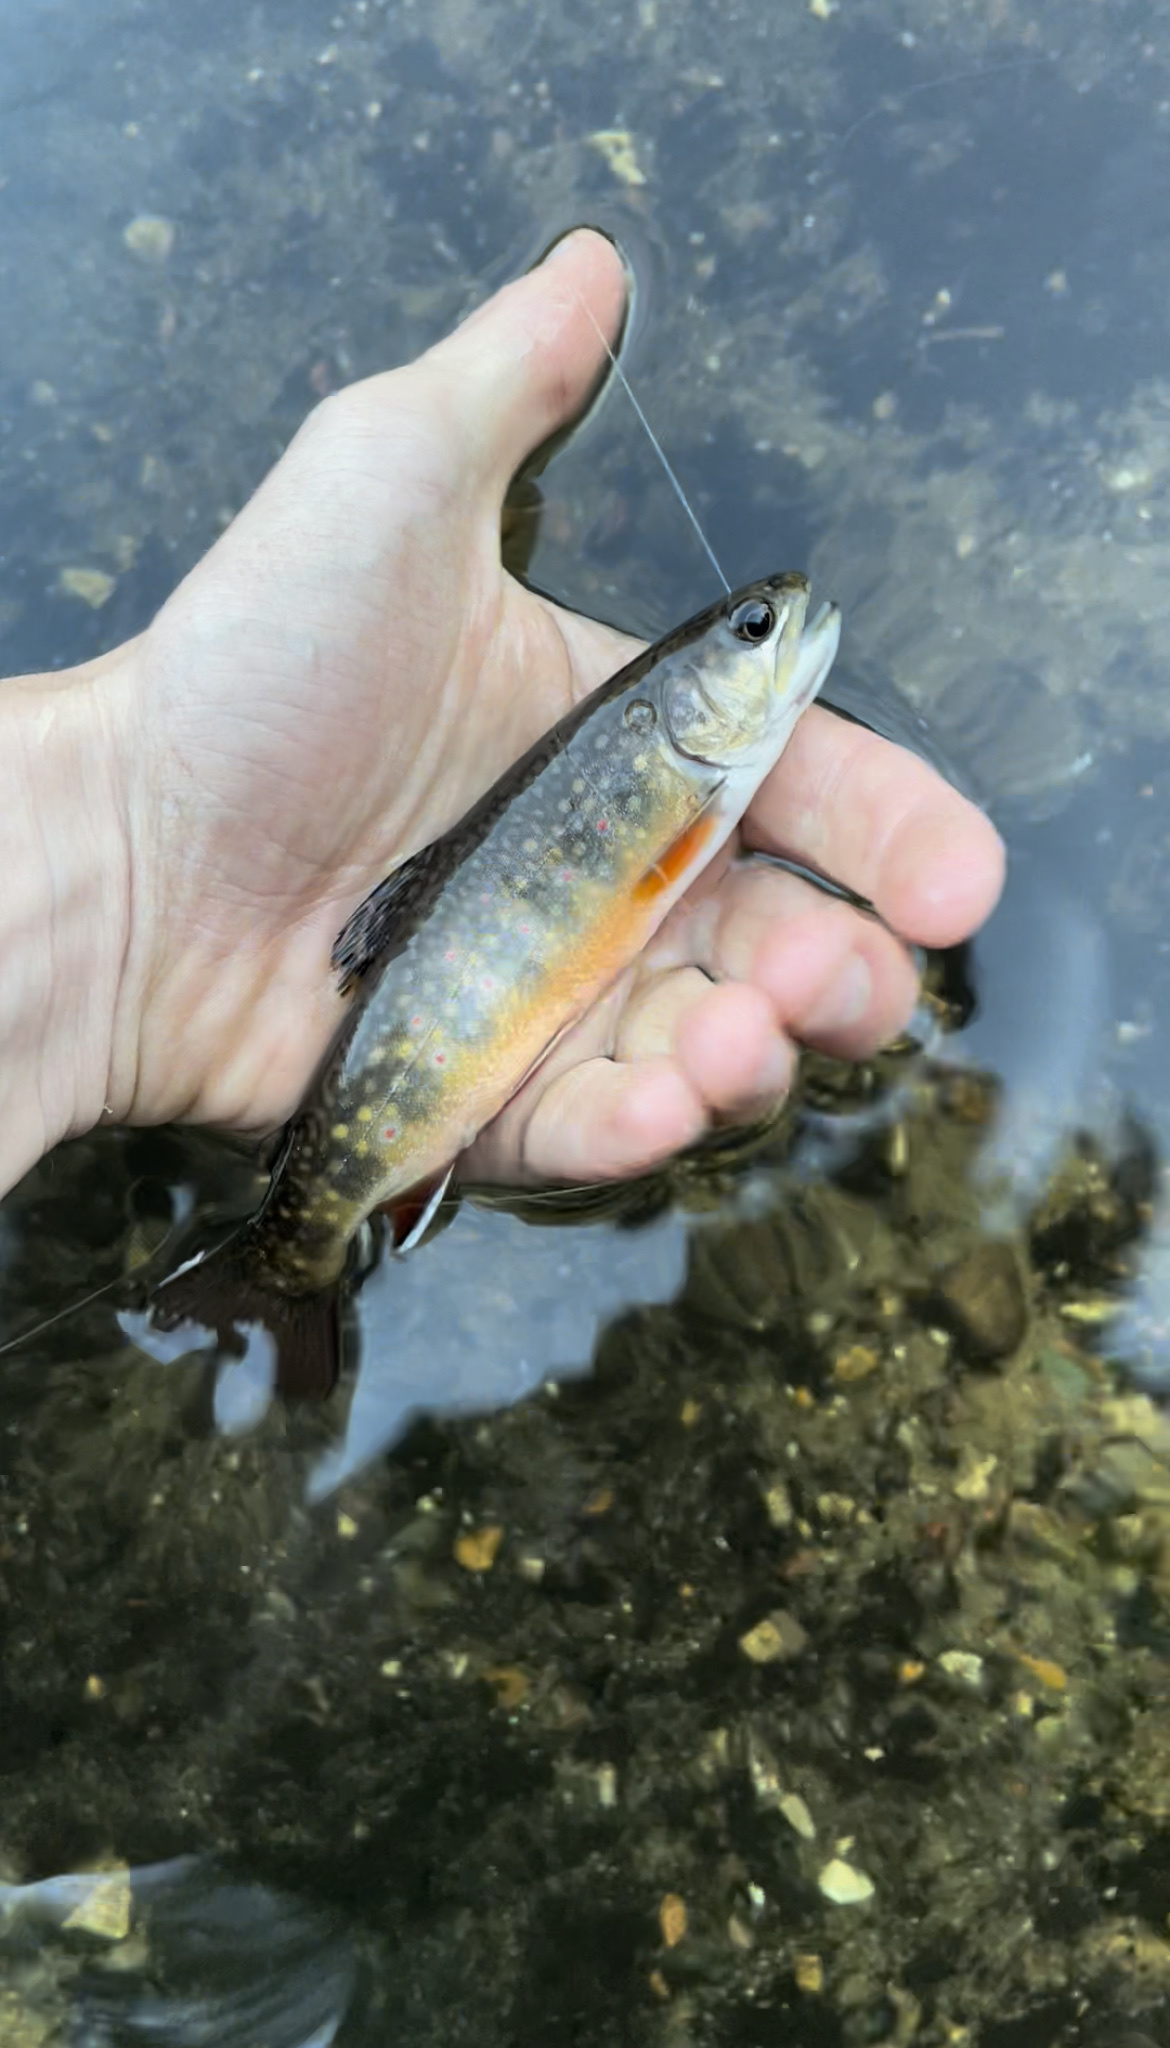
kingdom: Animalia
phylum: Chordata
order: Salmoniformes
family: Salmonidae
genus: Salvelinus
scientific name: Salvelinus fontinalis
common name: Brook trout
